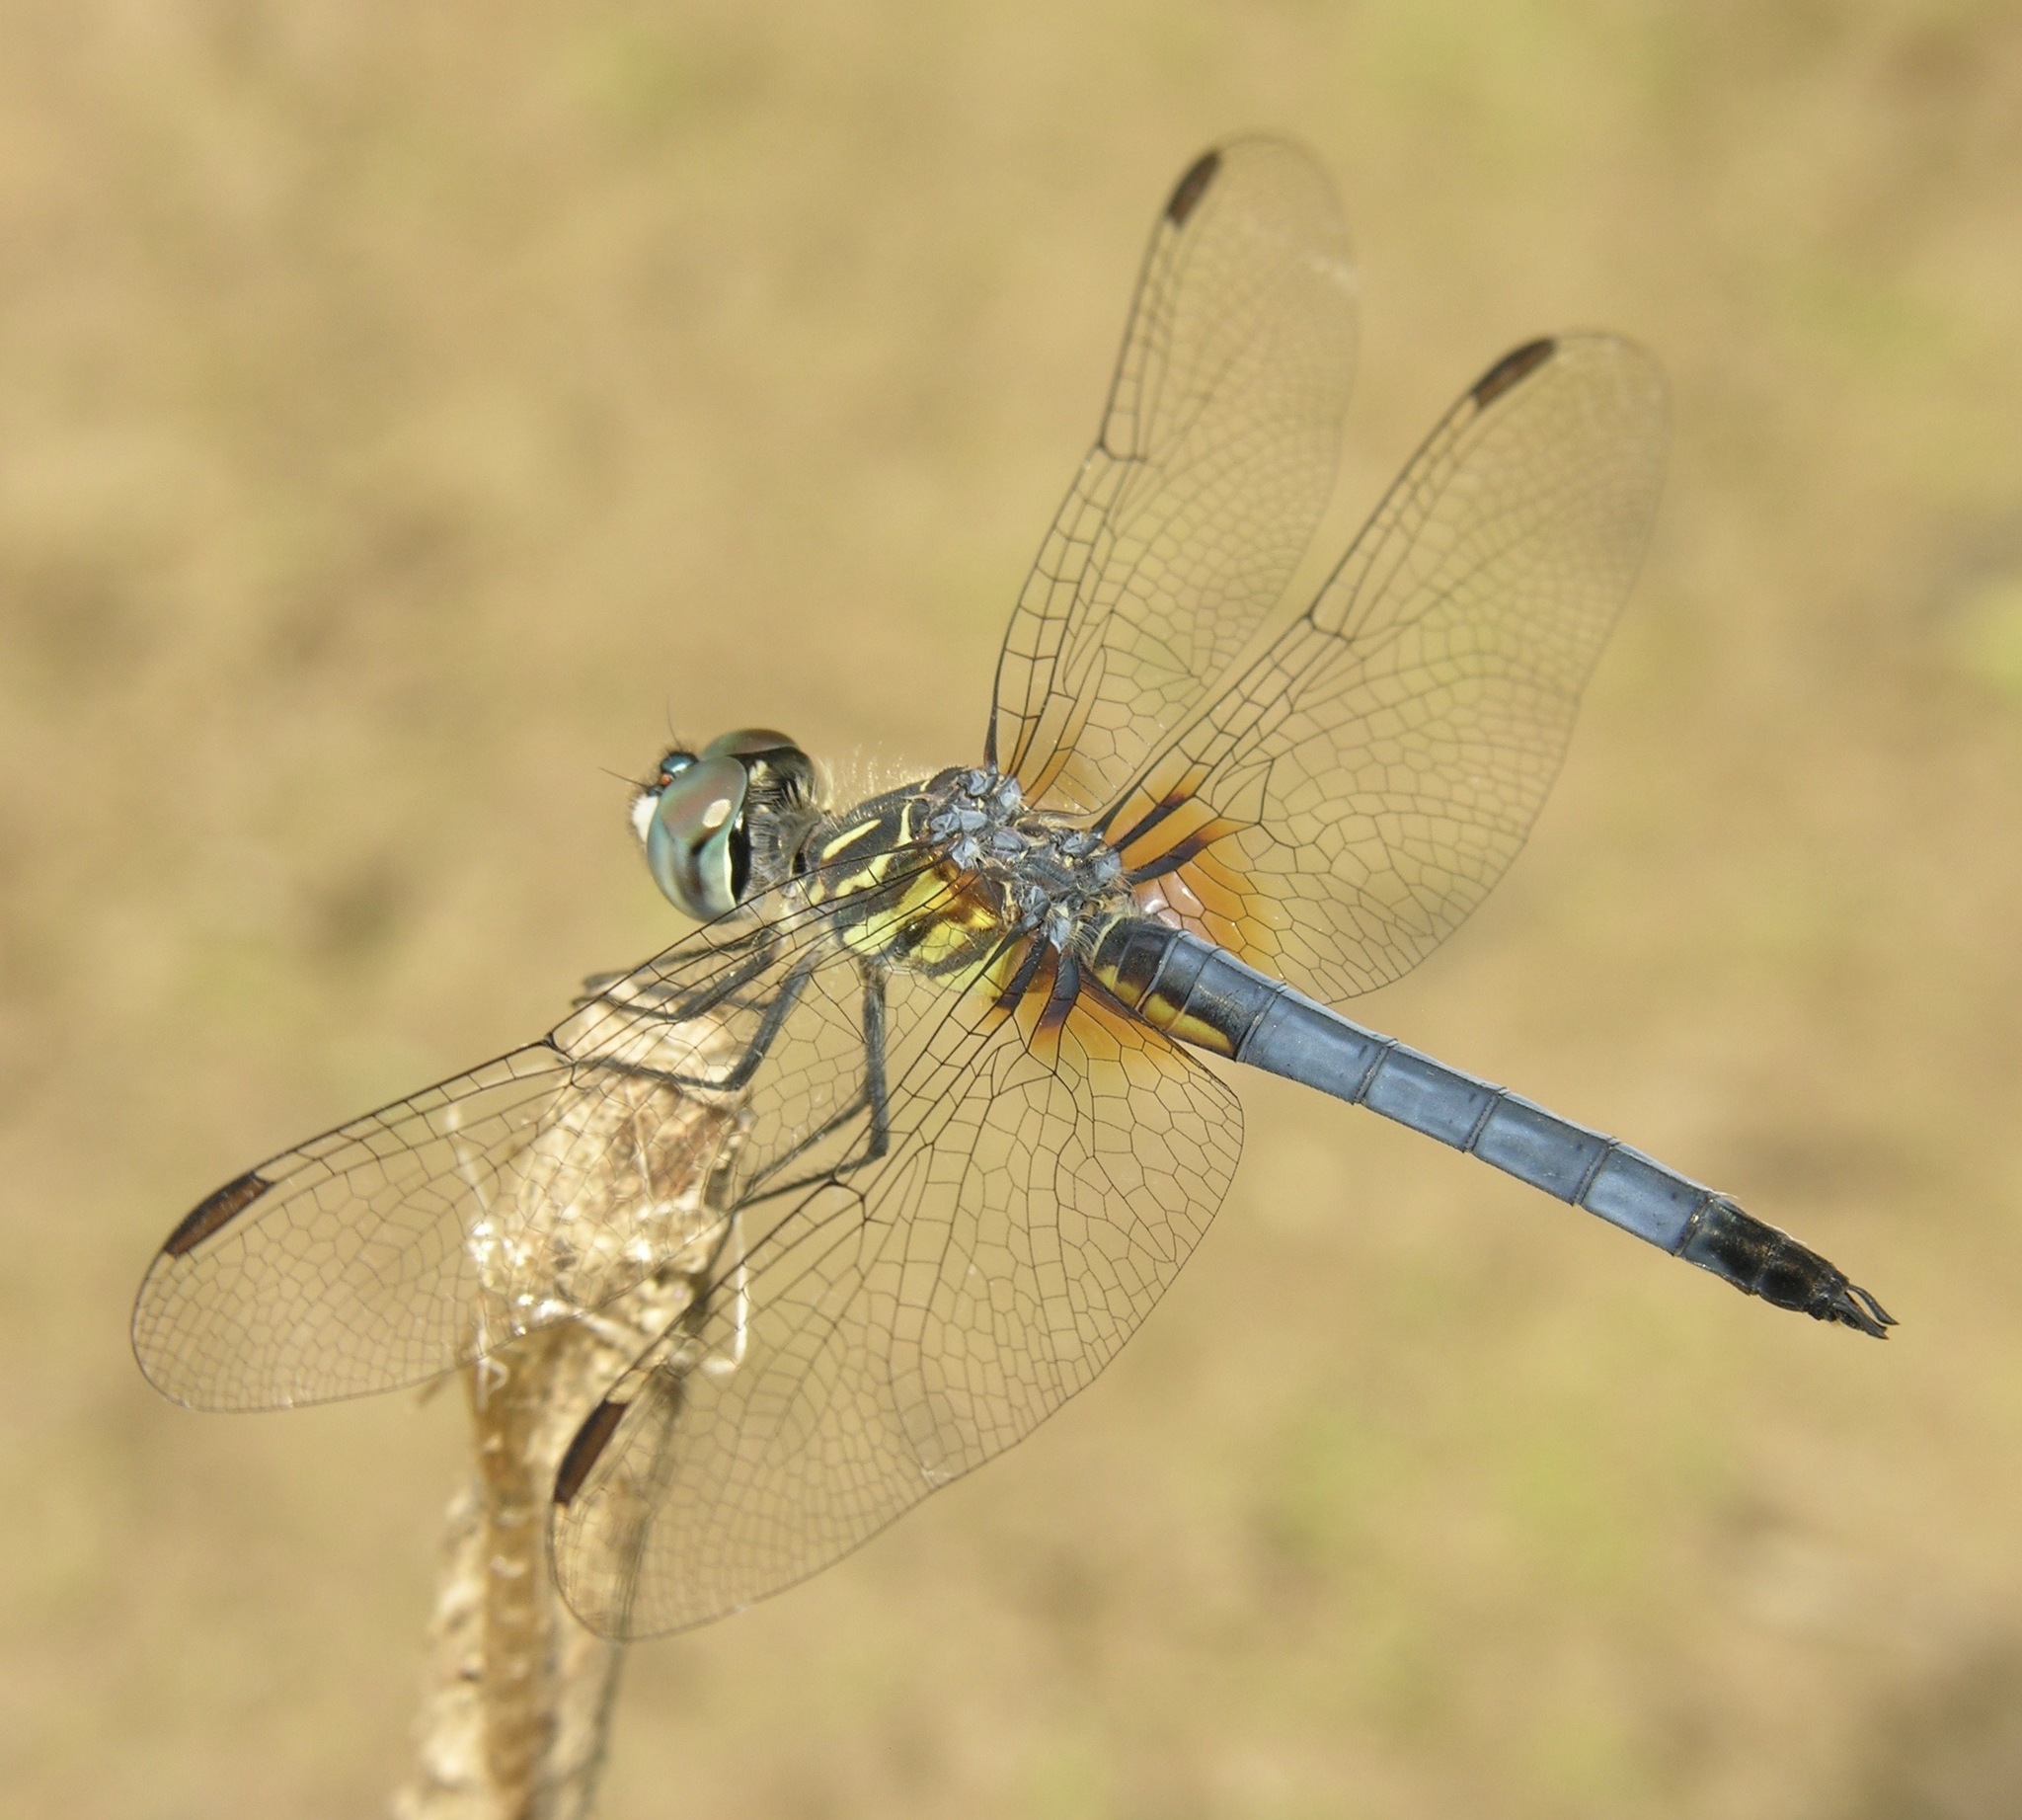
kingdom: Animalia
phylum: Arthropoda
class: Insecta
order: Odonata
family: Libellulidae
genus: Pachydiplax
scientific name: Pachydiplax longipennis
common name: Blue dasher
